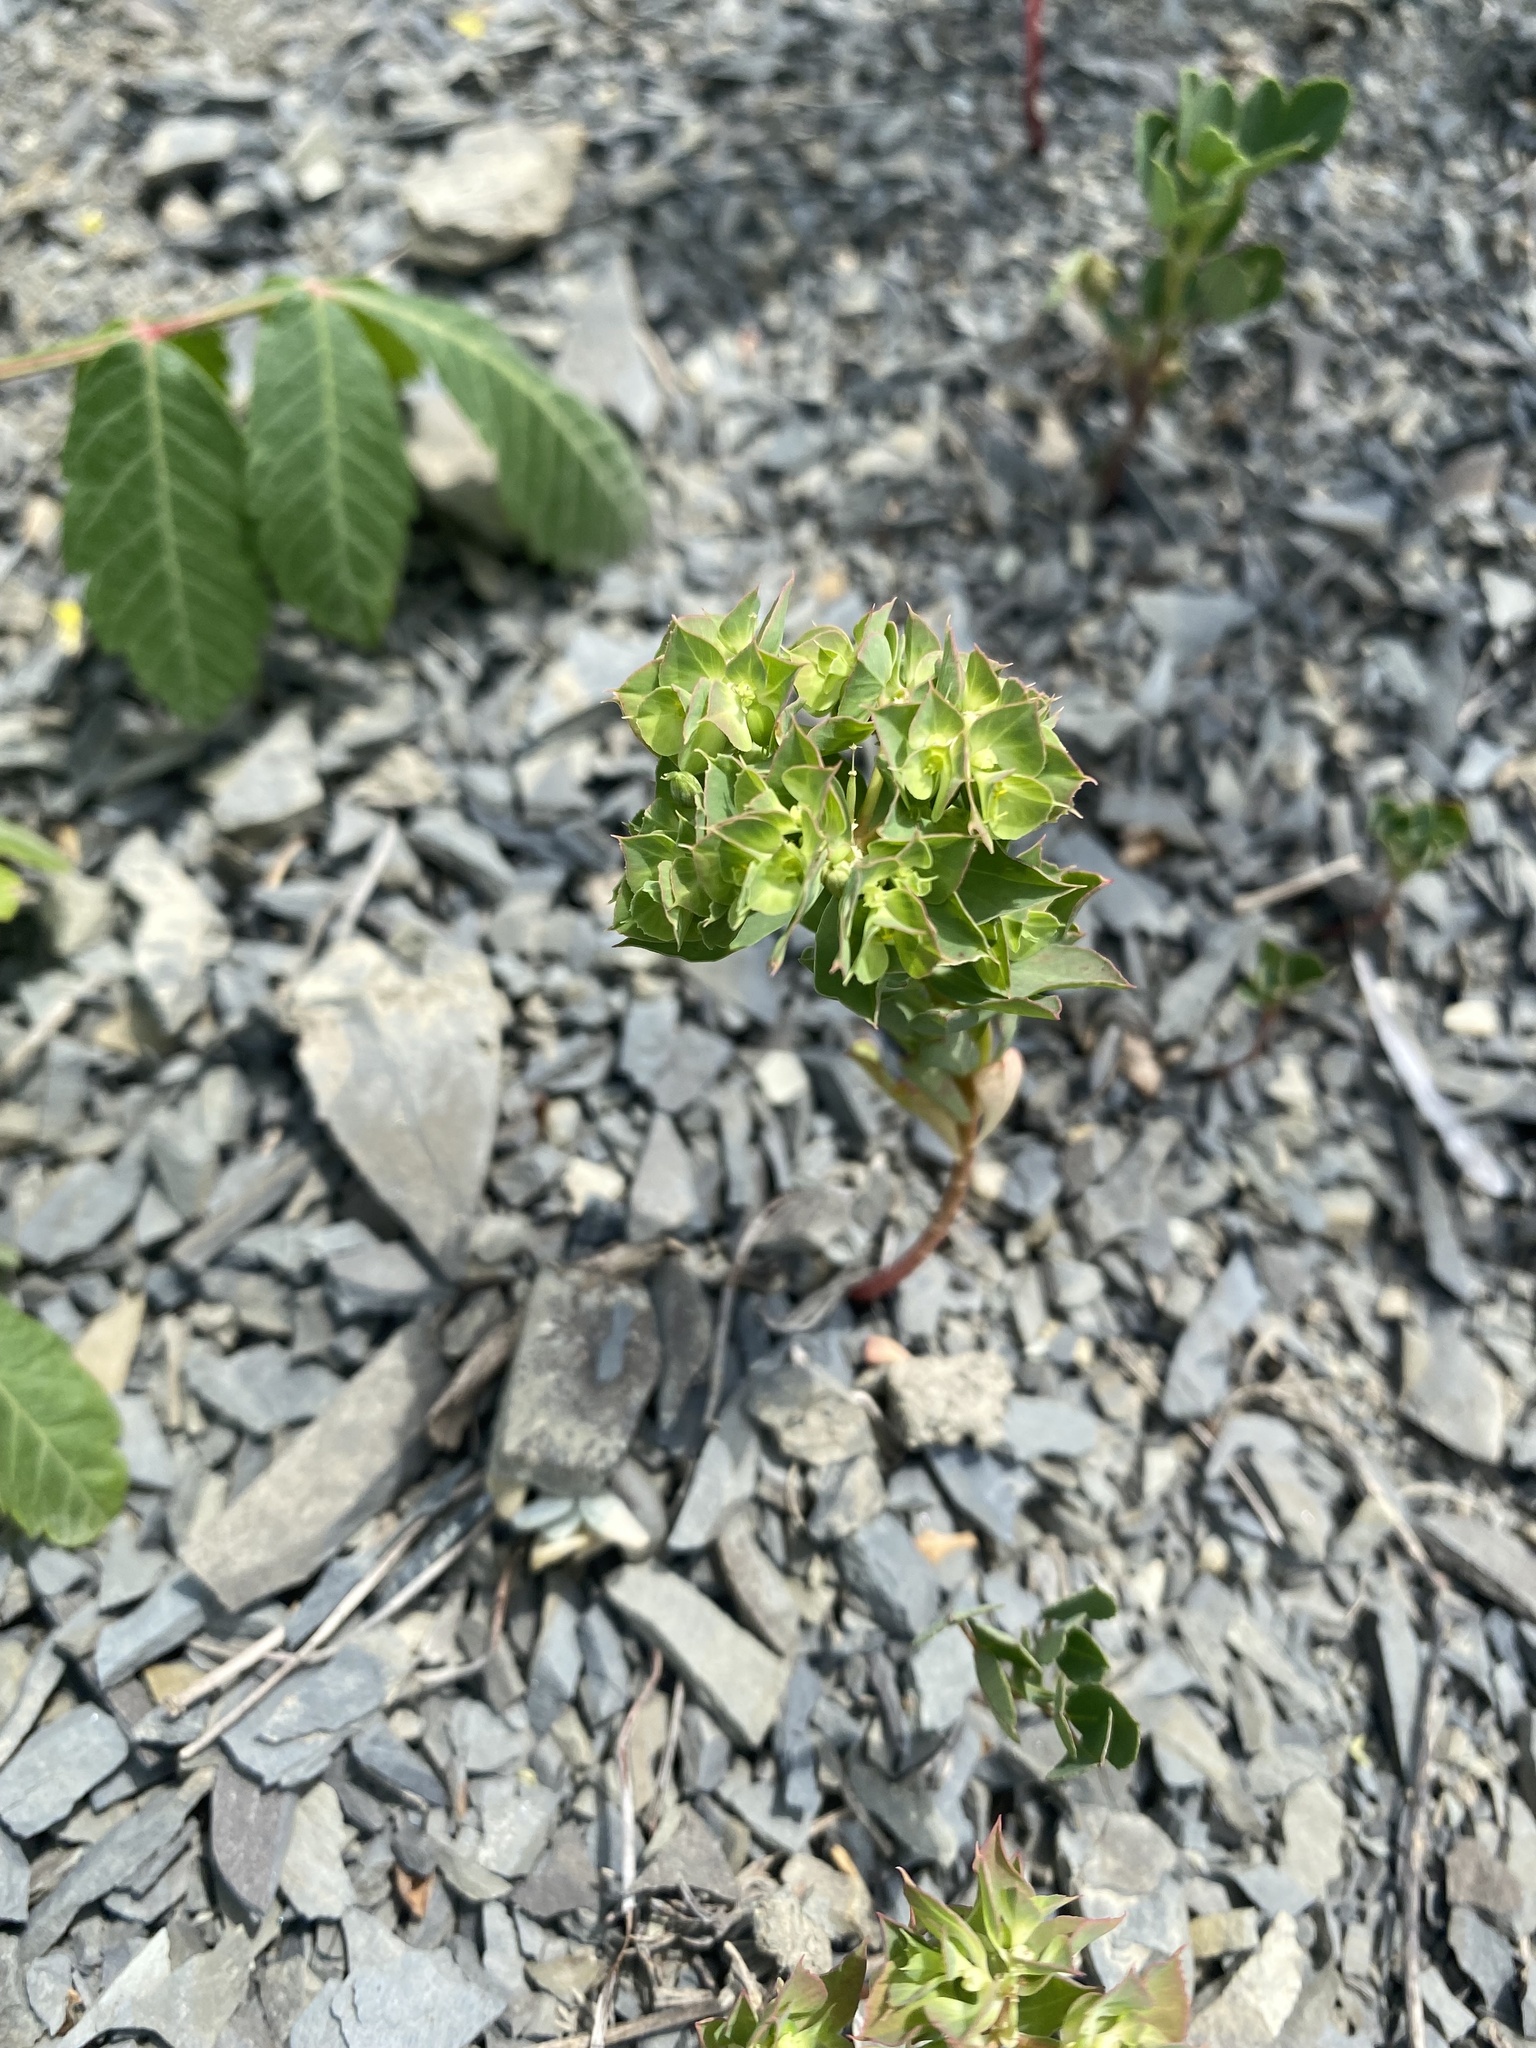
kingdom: Plantae
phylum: Tracheophyta
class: Magnoliopsida
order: Malpighiales
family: Euphorbiaceae
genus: Euphorbia
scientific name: Euphorbia falcata
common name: Sickle spurge
